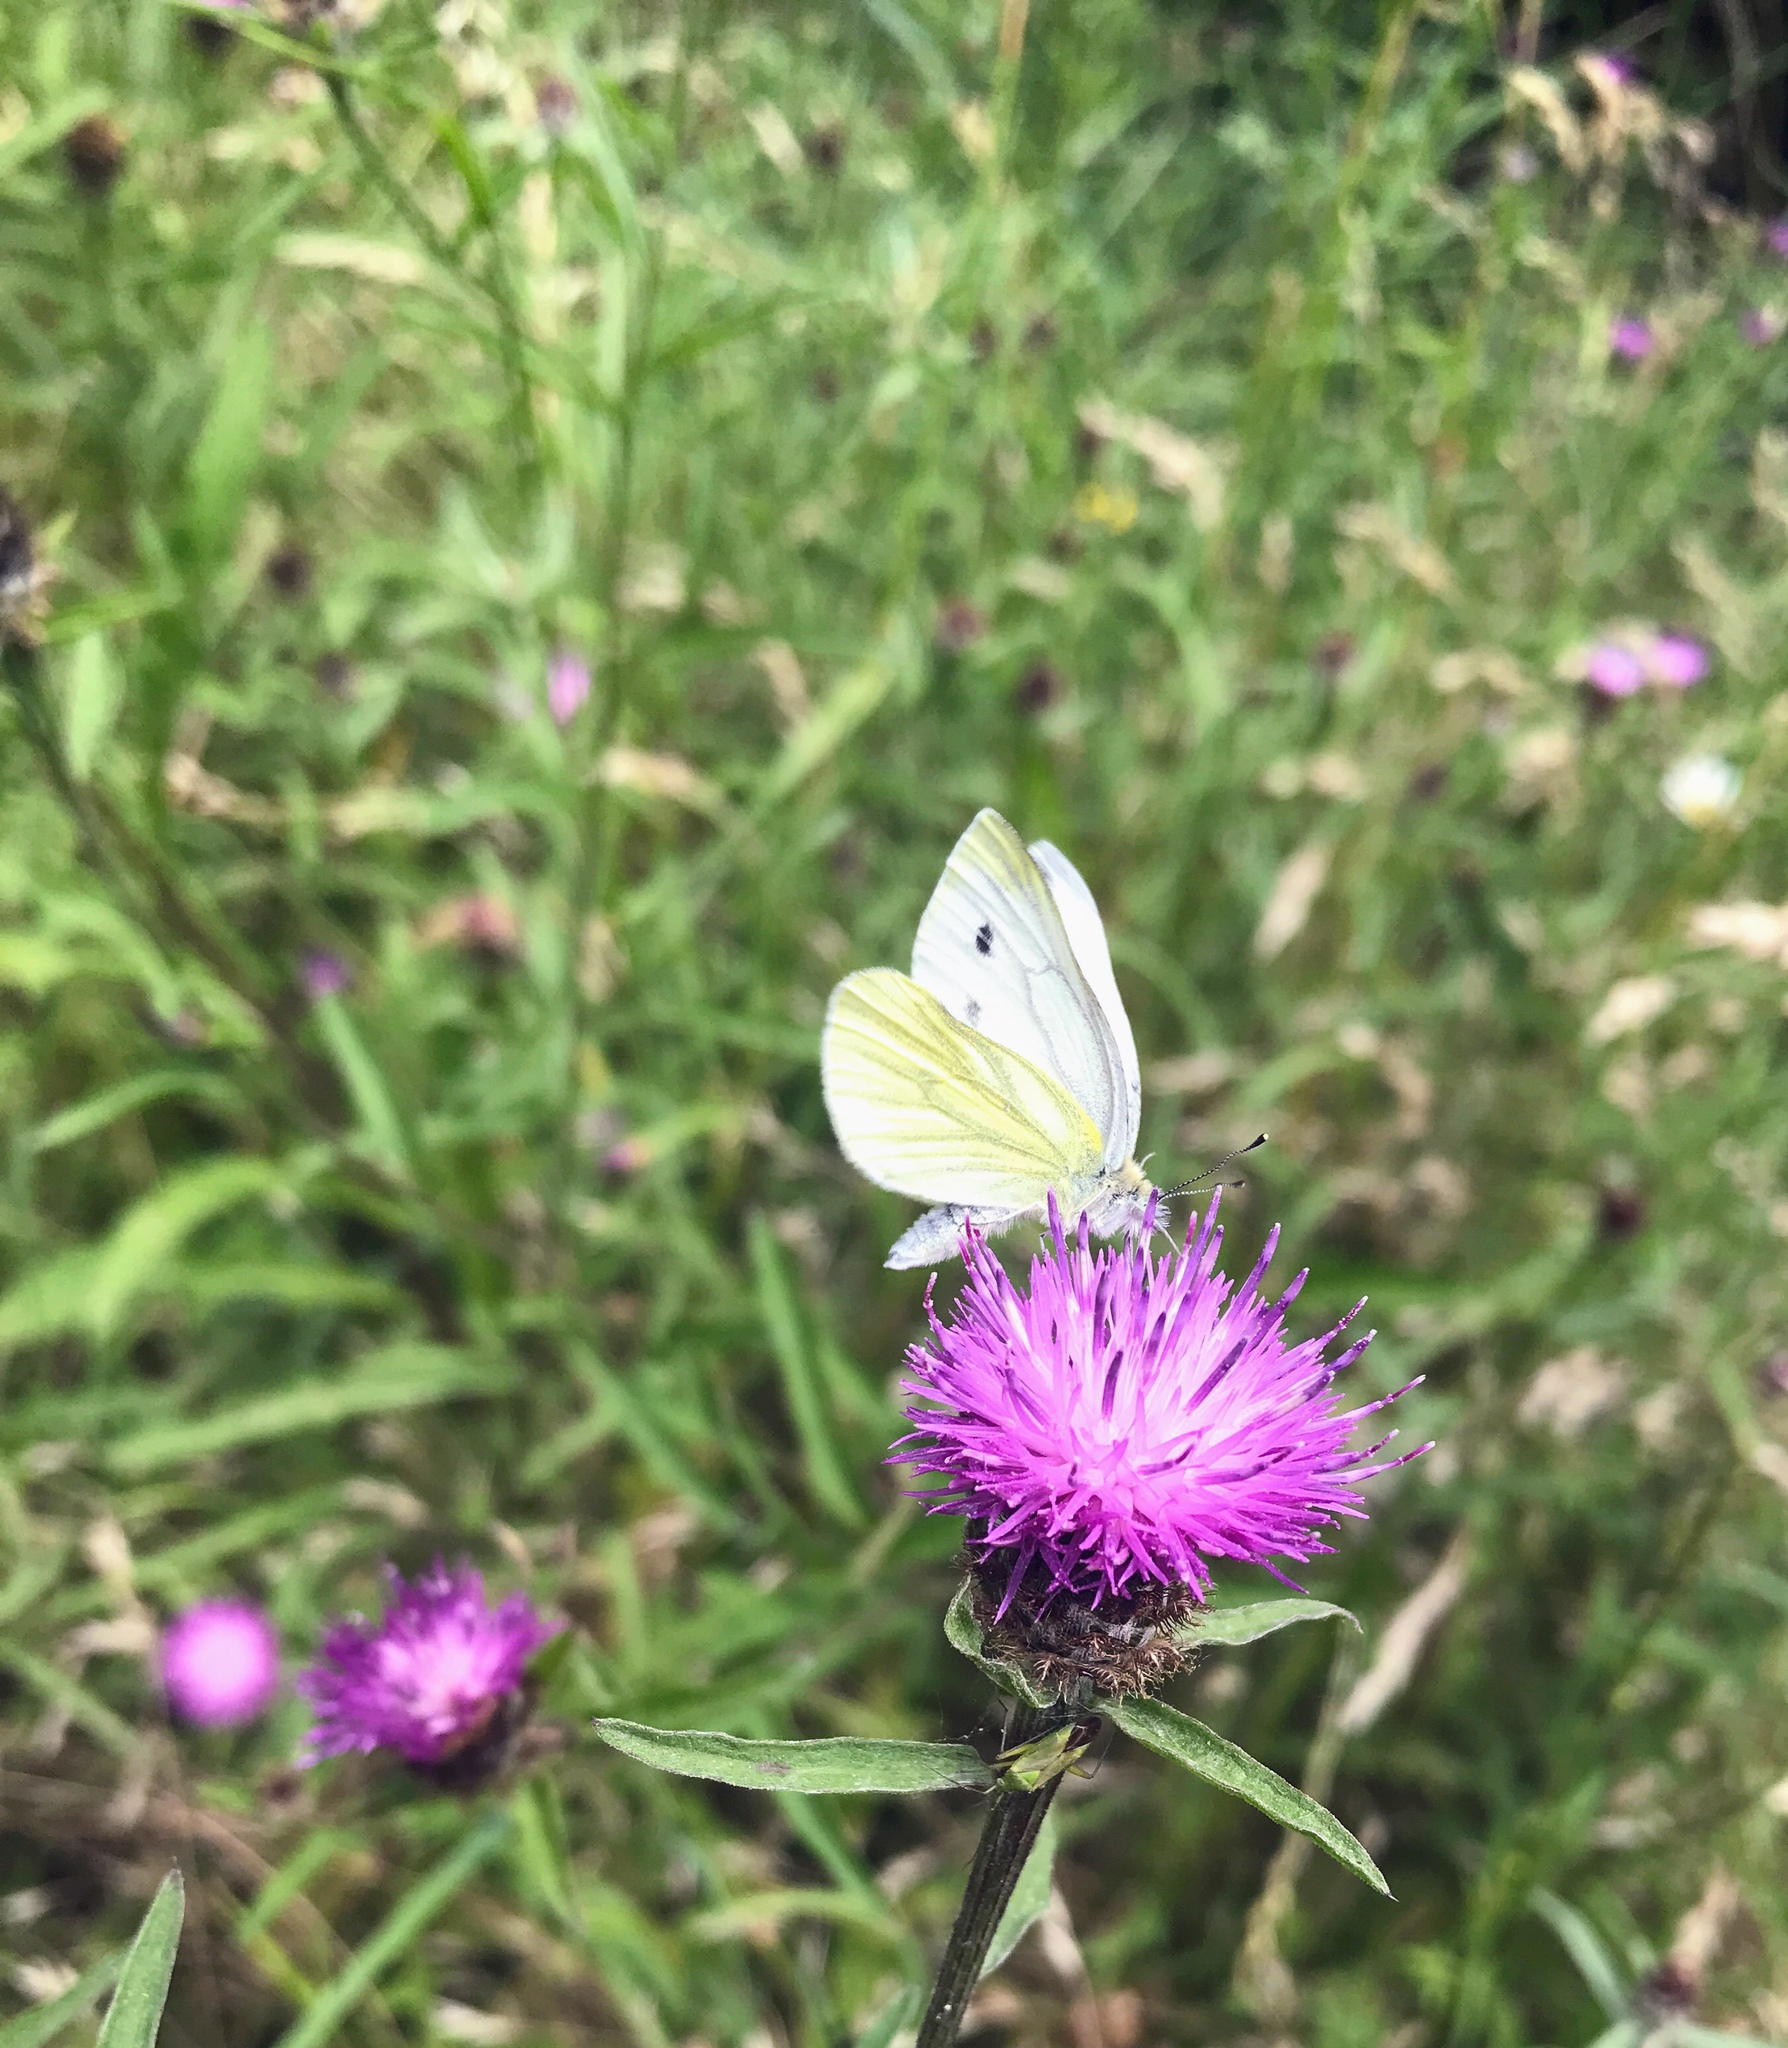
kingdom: Animalia
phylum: Arthropoda
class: Insecta
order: Lepidoptera
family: Pieridae
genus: Pieris
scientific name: Pieris napi
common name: Green-veined white
